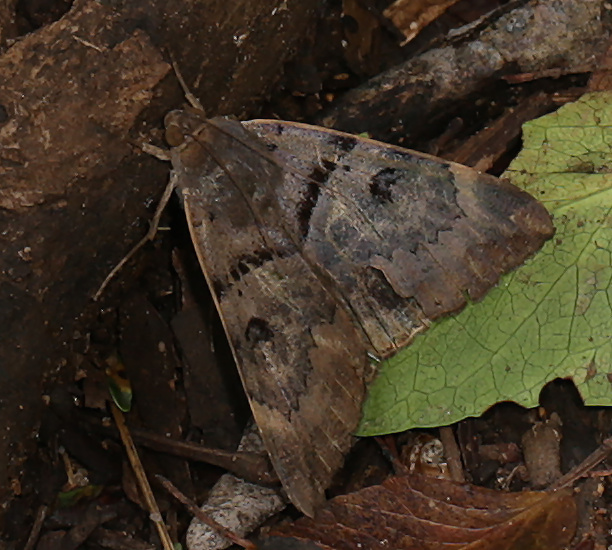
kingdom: Animalia
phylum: Arthropoda
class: Insecta
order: Lepidoptera
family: Erebidae
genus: Achaea
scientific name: Achaea lienardi
